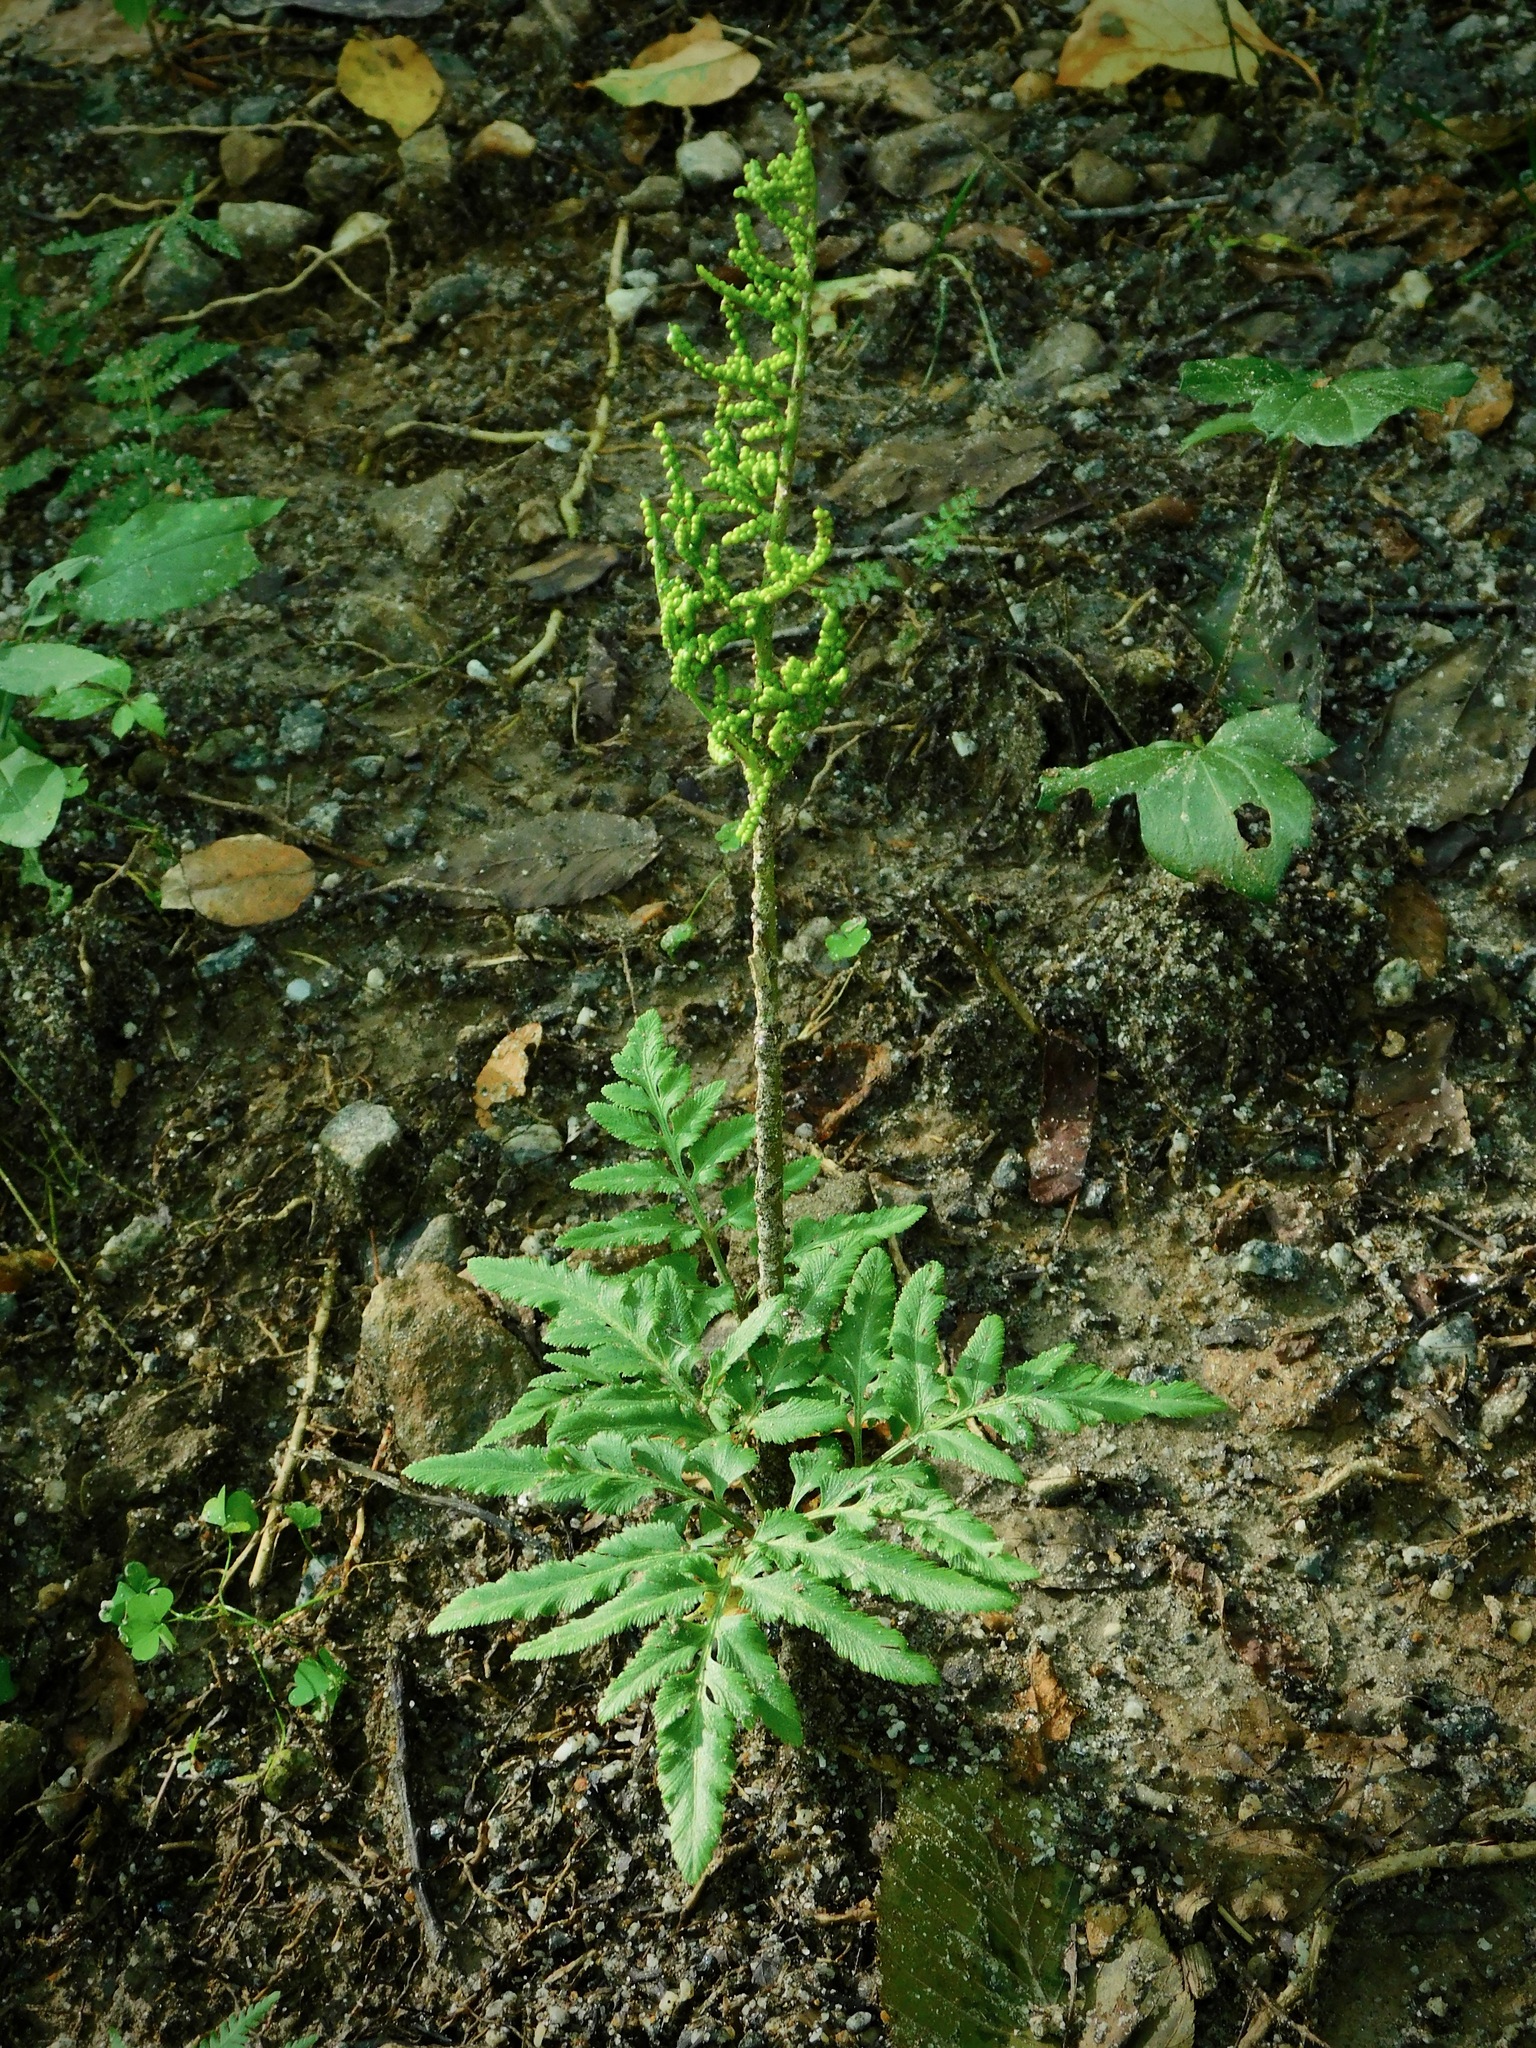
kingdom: Plantae
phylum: Tracheophyta
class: Polypodiopsida
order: Ophioglossales
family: Ophioglossaceae
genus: Sceptridium
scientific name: Sceptridium dissectum
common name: Cut-leaved grapefern
